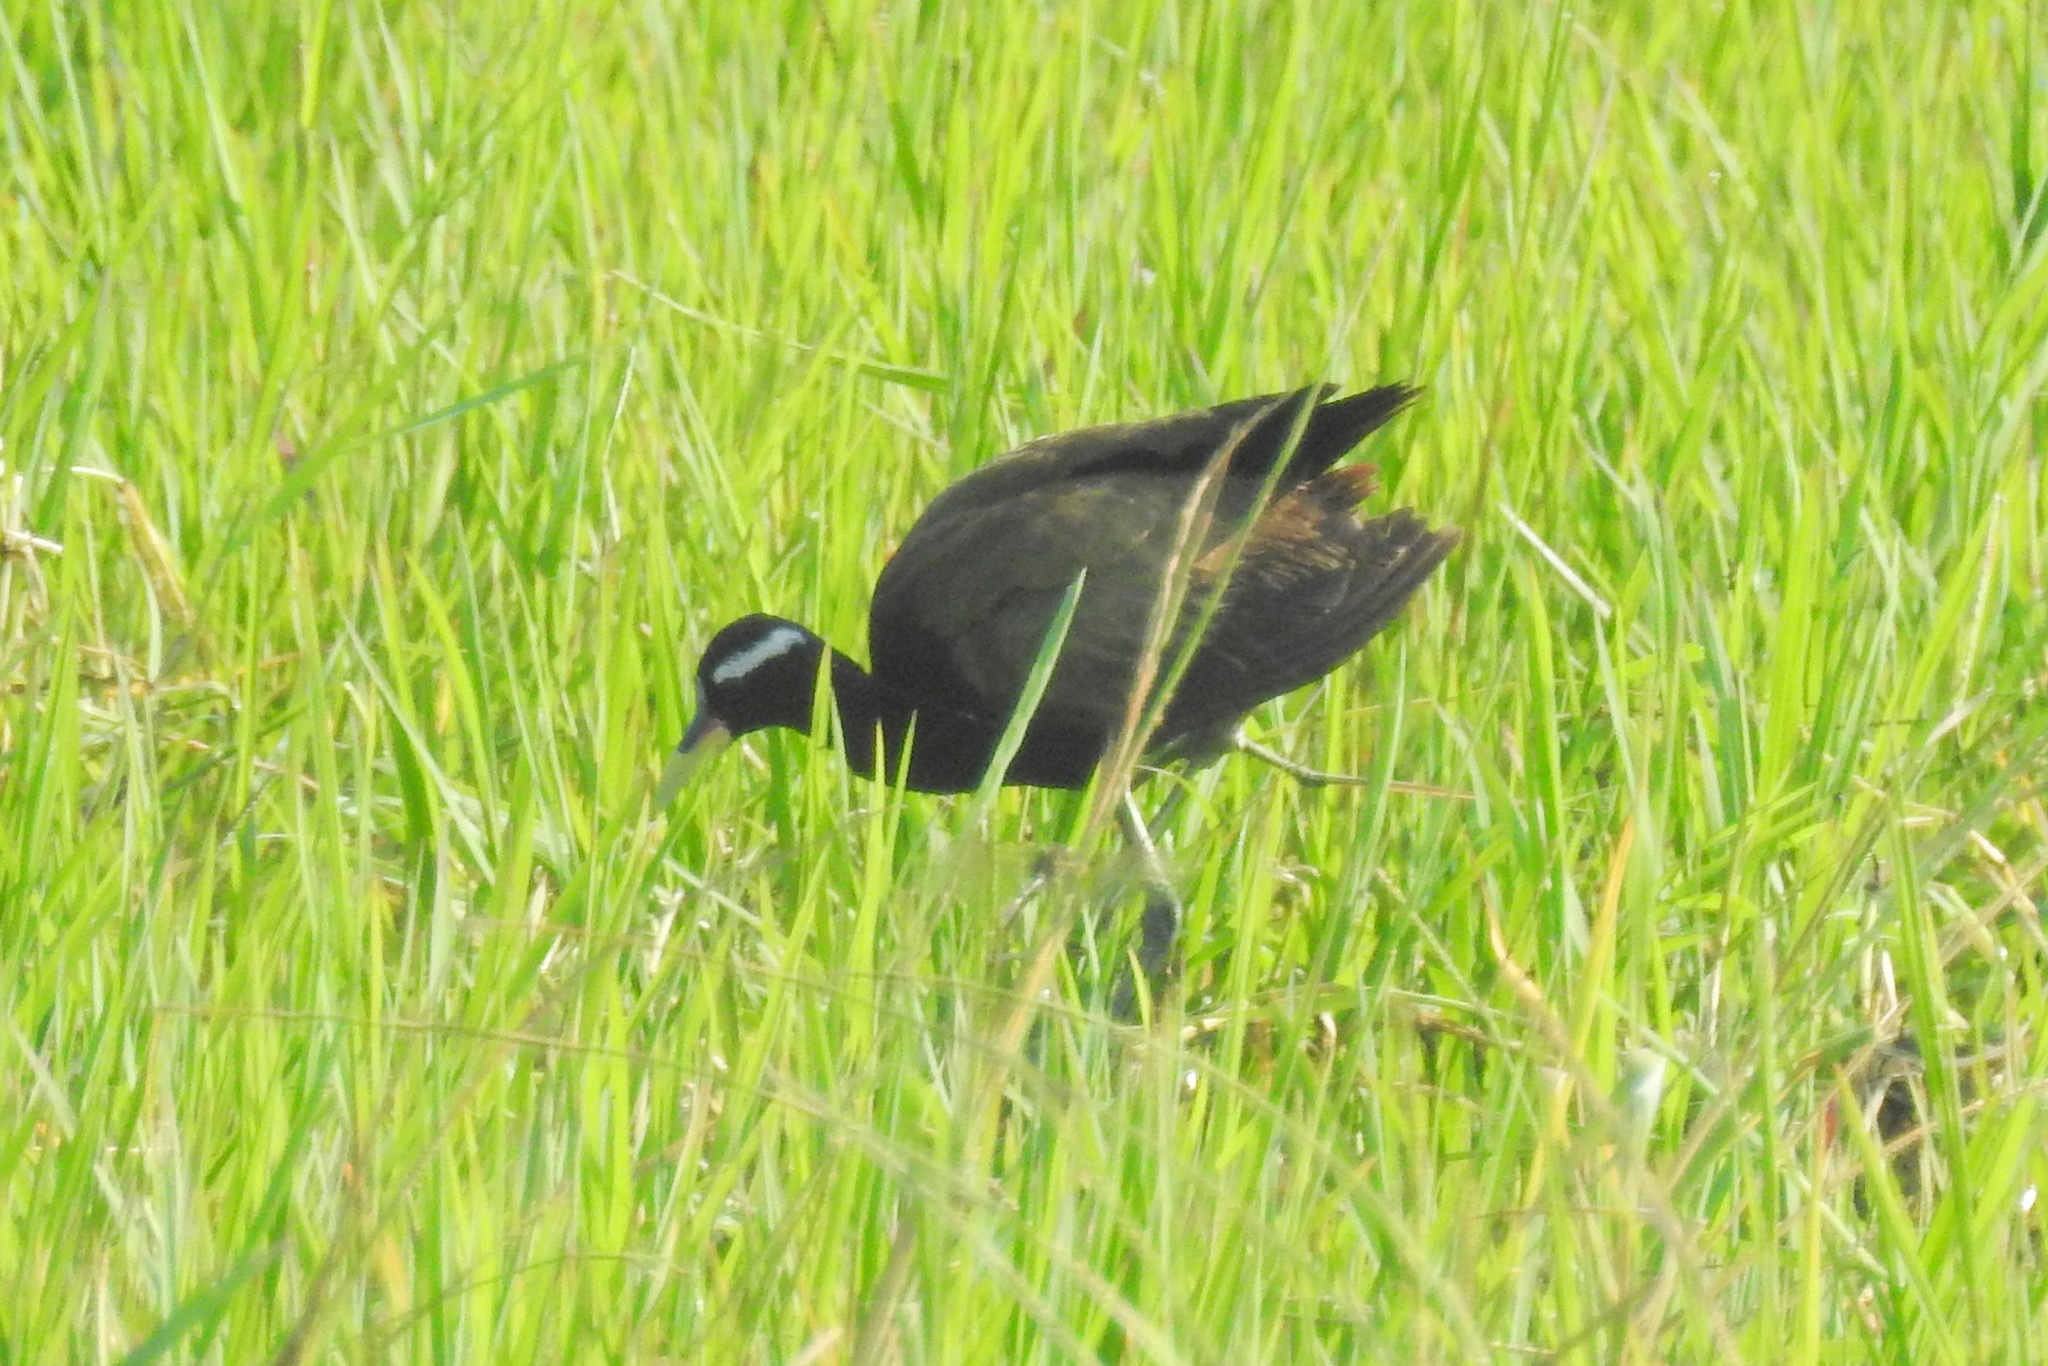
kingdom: Animalia
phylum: Chordata
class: Aves
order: Charadriiformes
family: Jacanidae
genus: Metopidius
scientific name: Metopidius indicus
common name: Bronze-winged jacana
